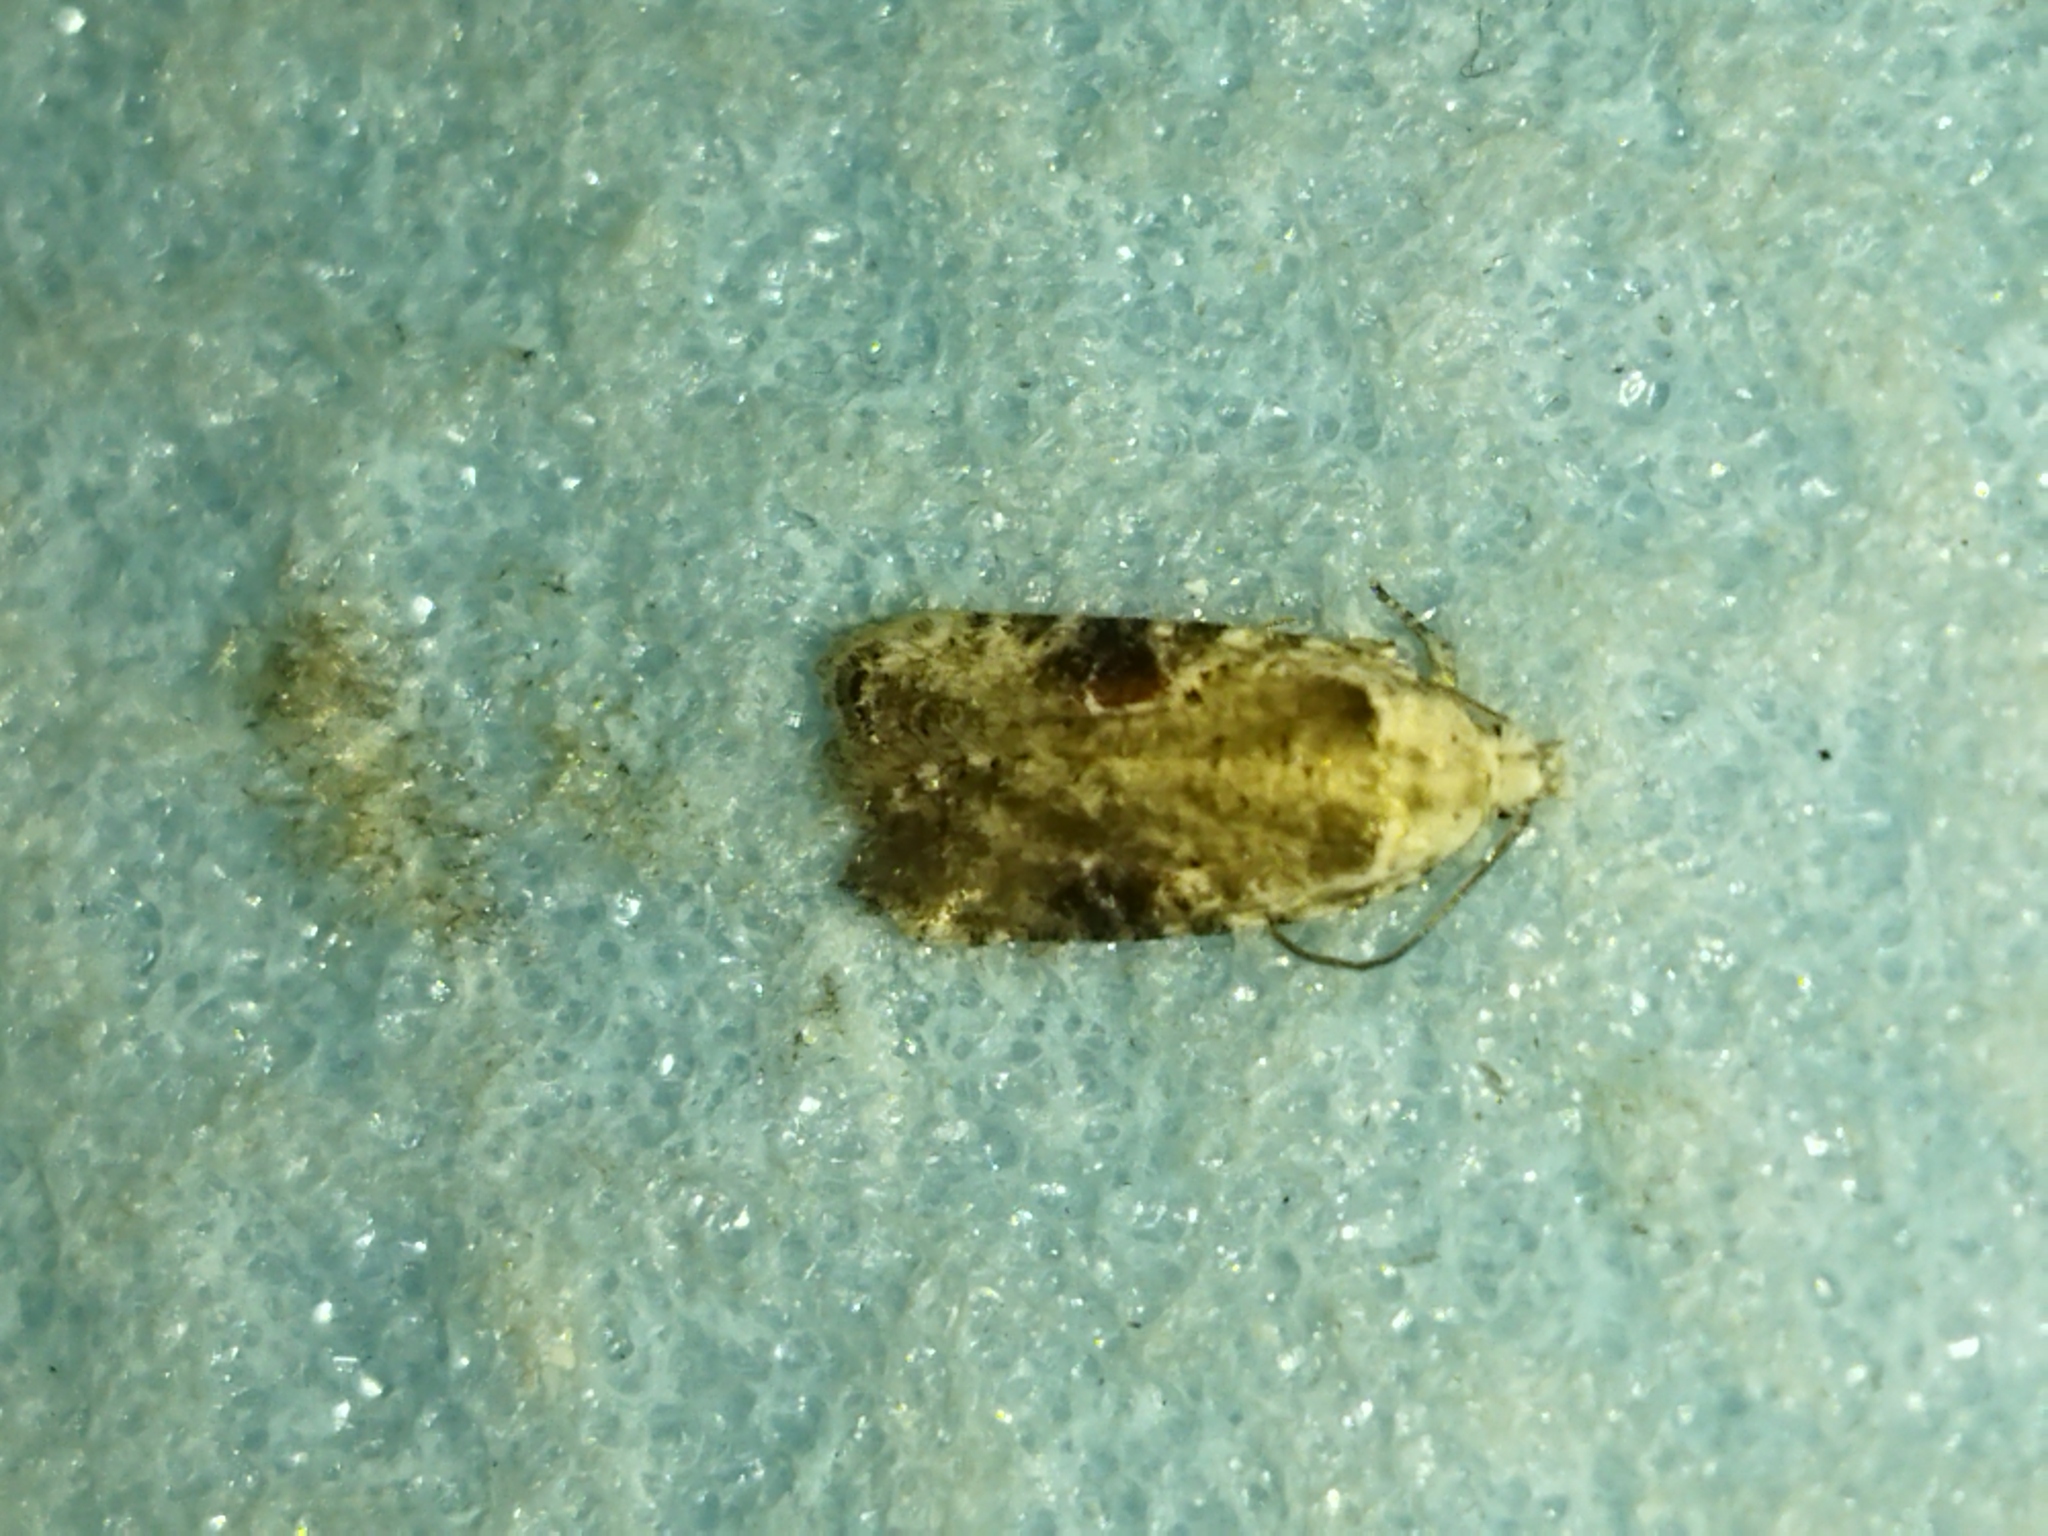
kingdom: Animalia
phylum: Arthropoda
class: Insecta
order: Lepidoptera
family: Depressariidae
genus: Agonopterix
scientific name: Agonopterix alstroemeriana
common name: Moth
